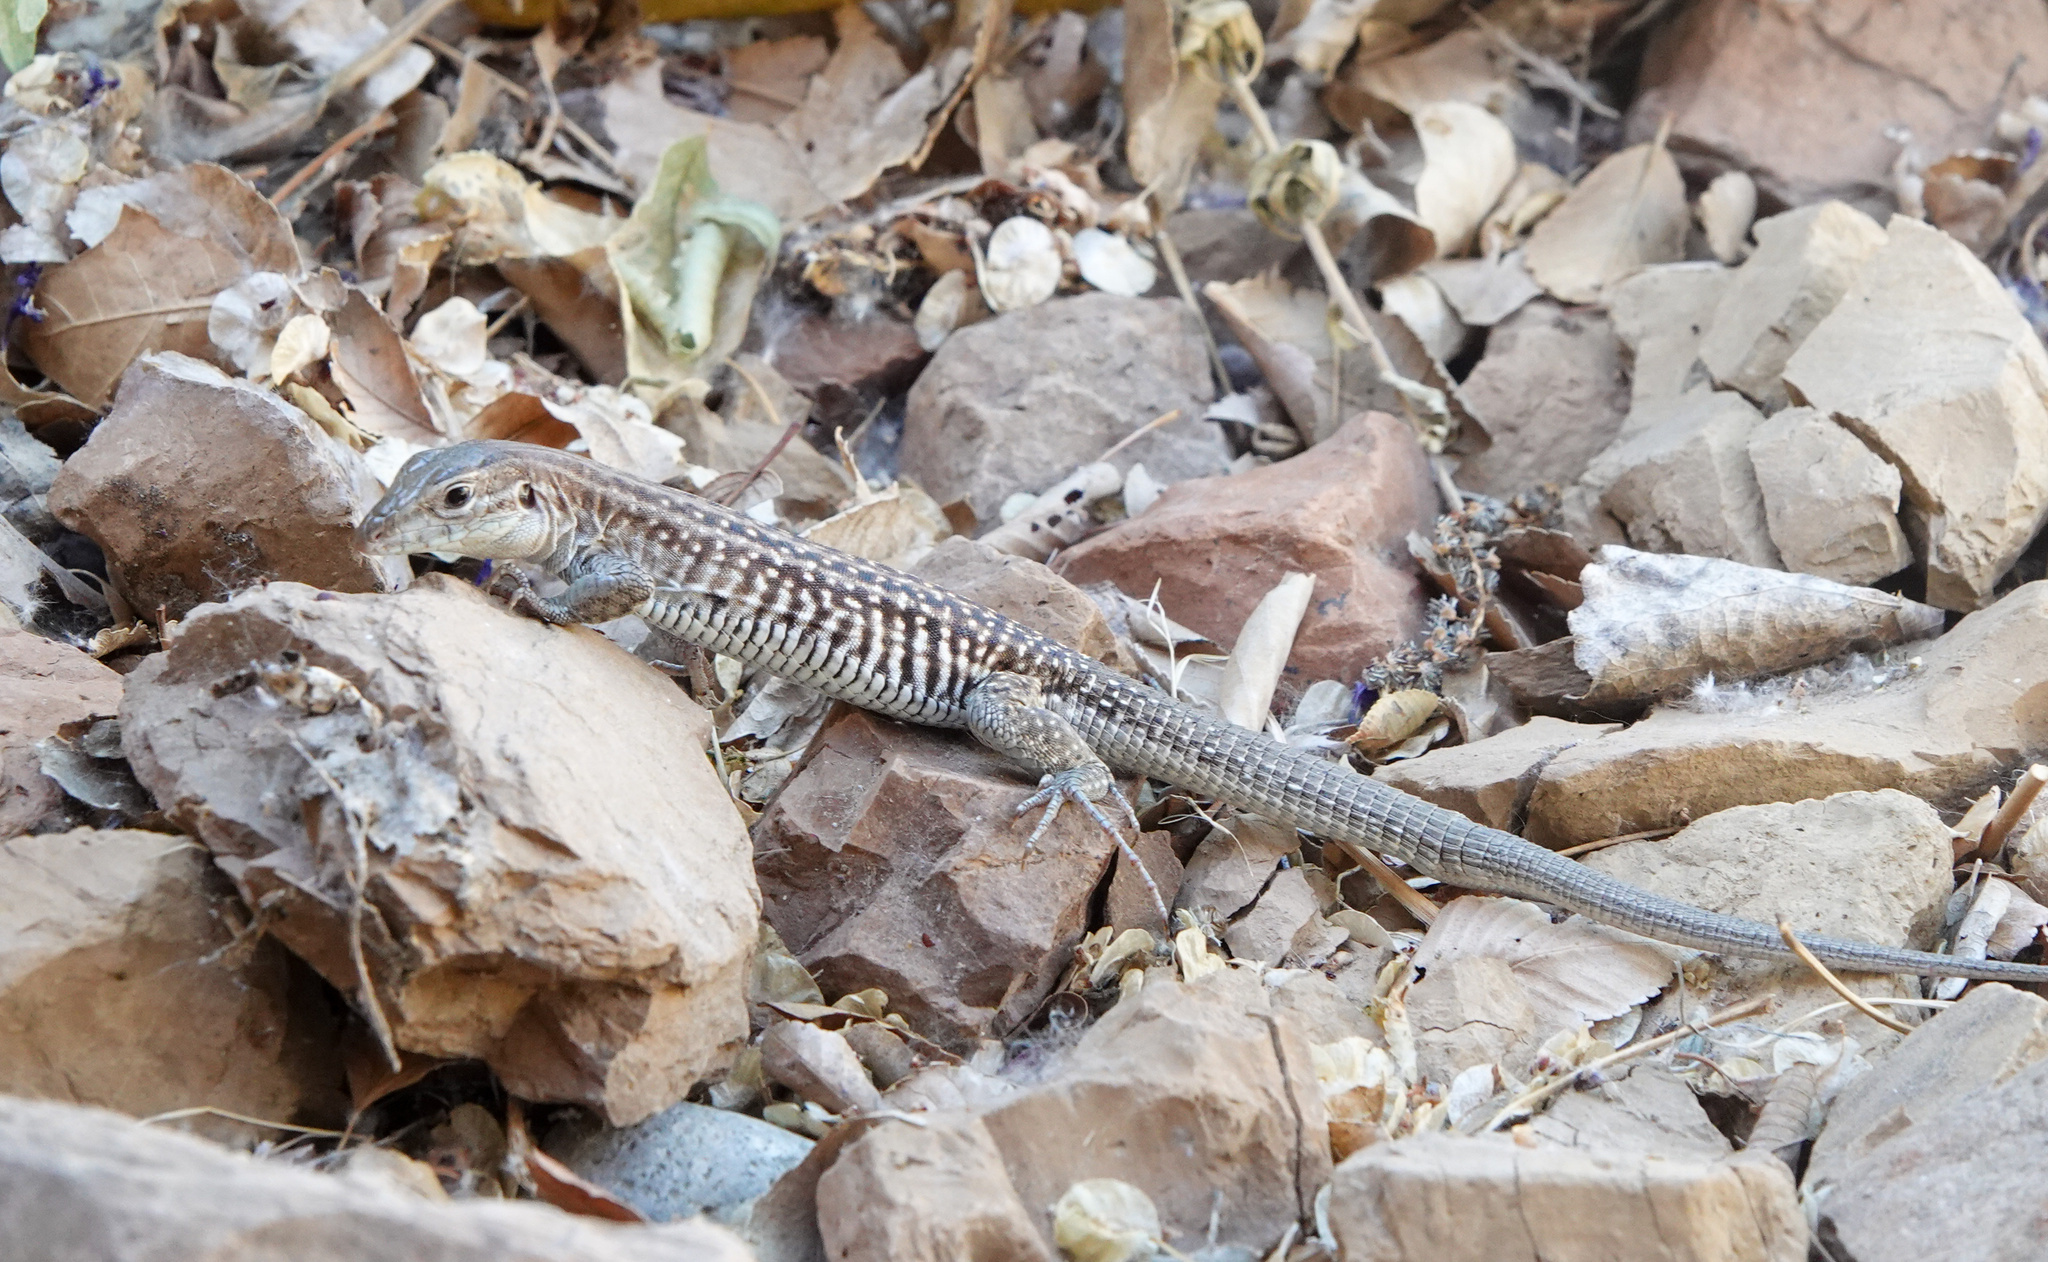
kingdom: Animalia
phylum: Chordata
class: Squamata
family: Teiidae
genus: Aspidoscelis
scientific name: Aspidoscelis exsanguis
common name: Chihuahuan spotted whiptail
